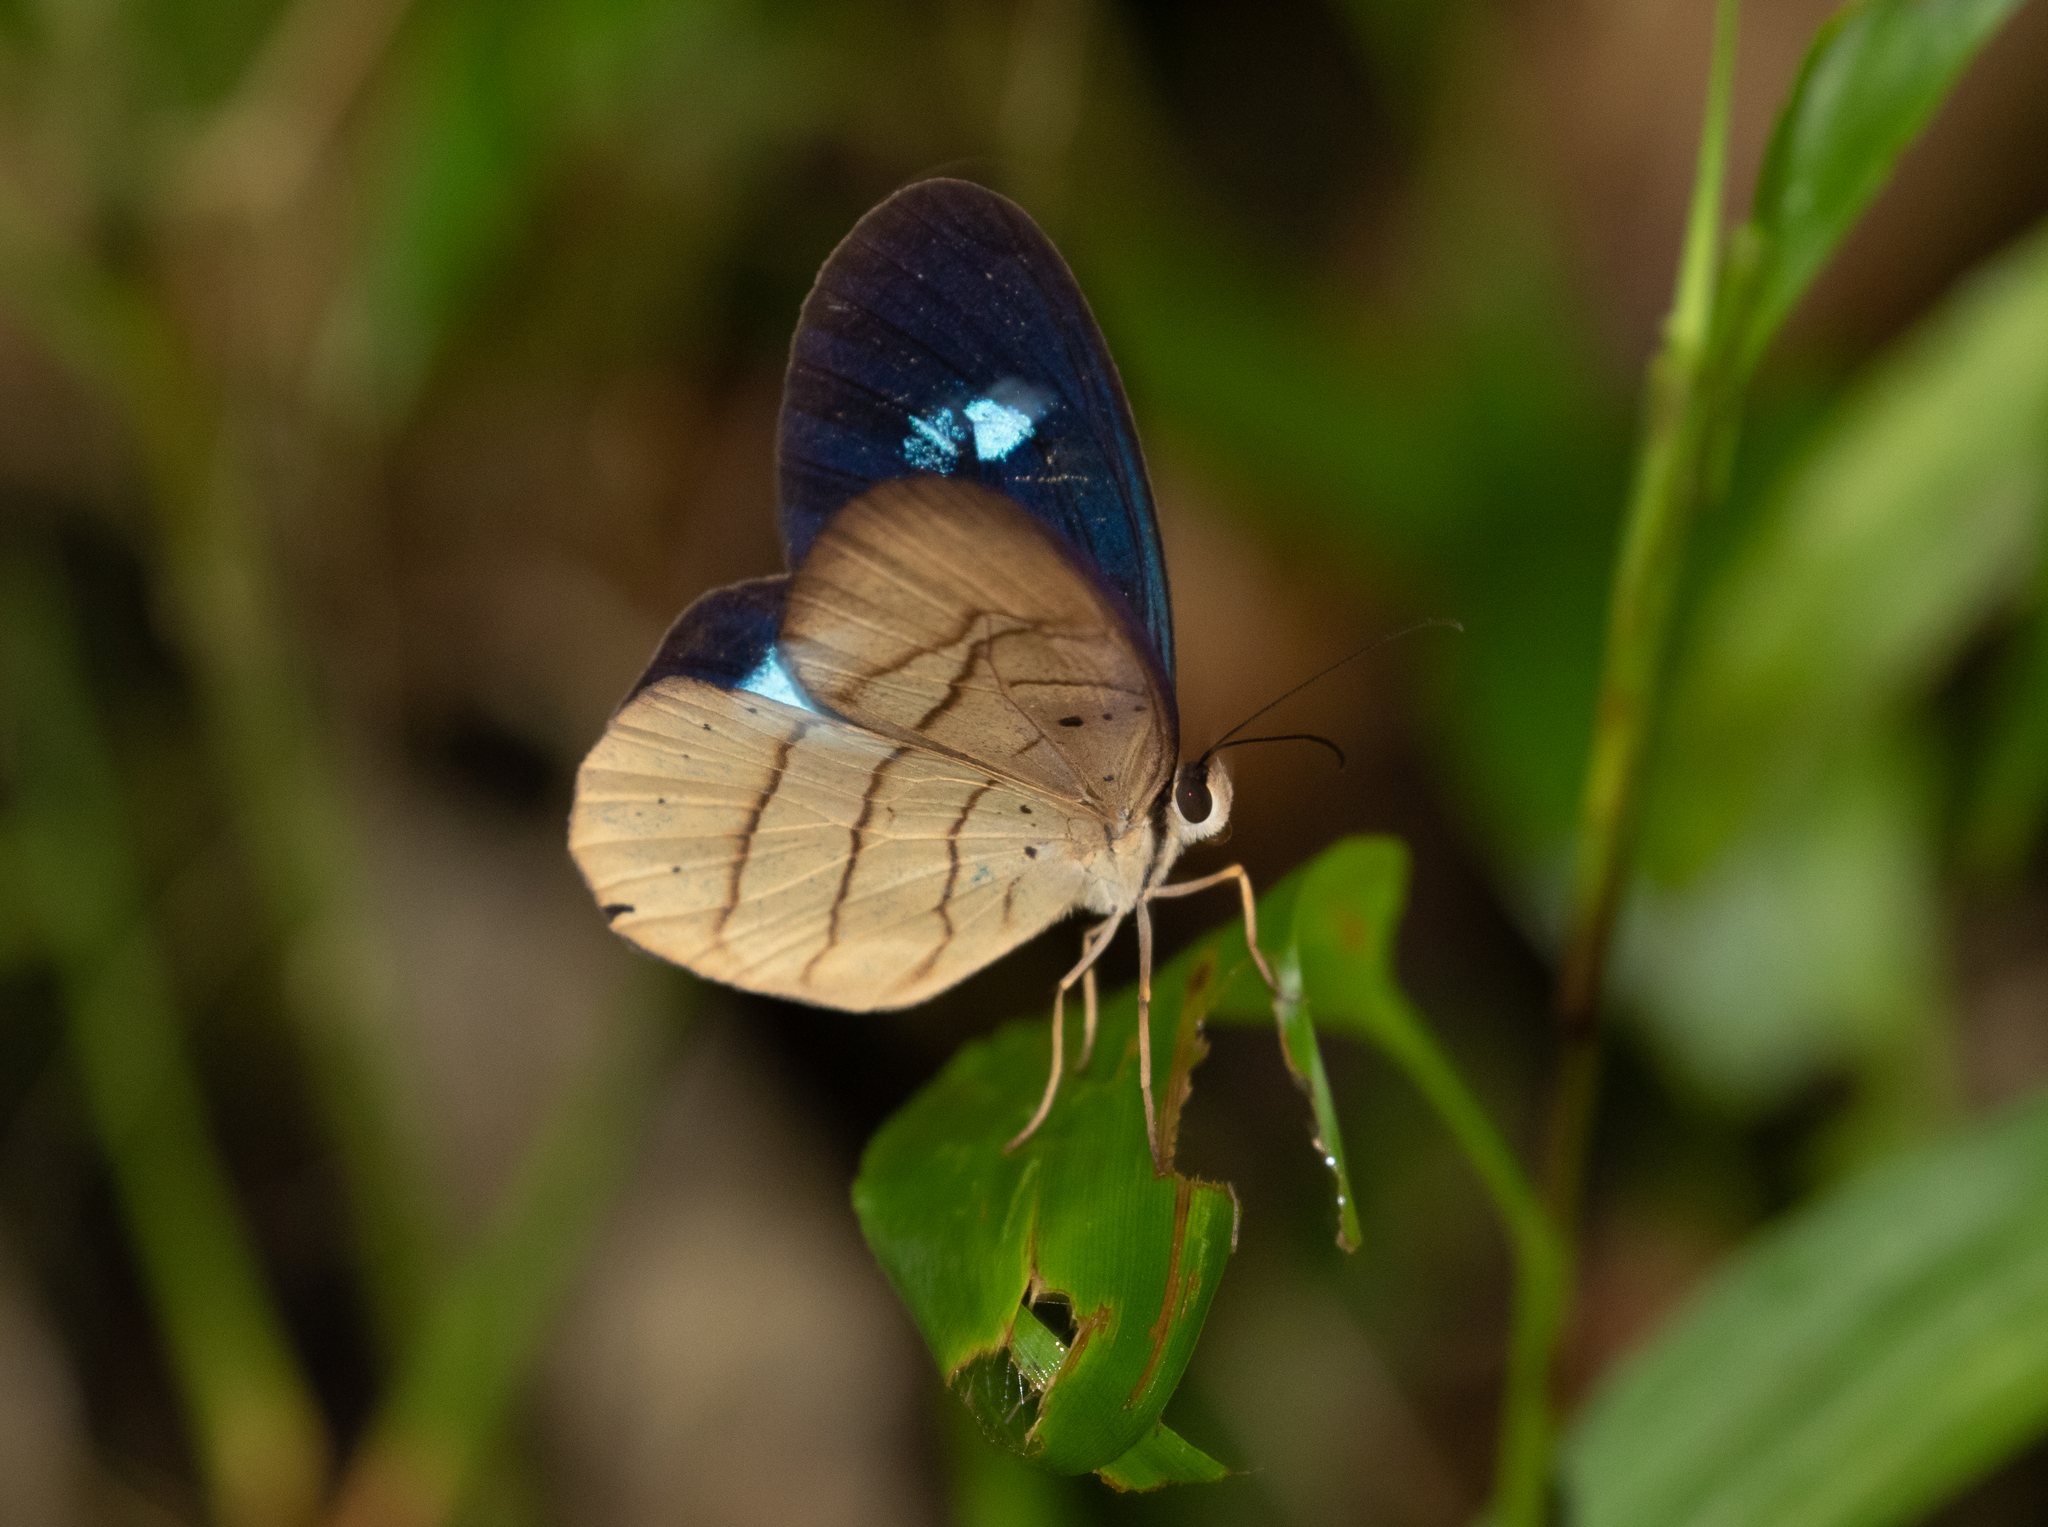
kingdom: Animalia
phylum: Arthropoda
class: Insecta
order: Lepidoptera
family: Nymphalidae
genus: Pierella
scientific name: Pierella hortona
